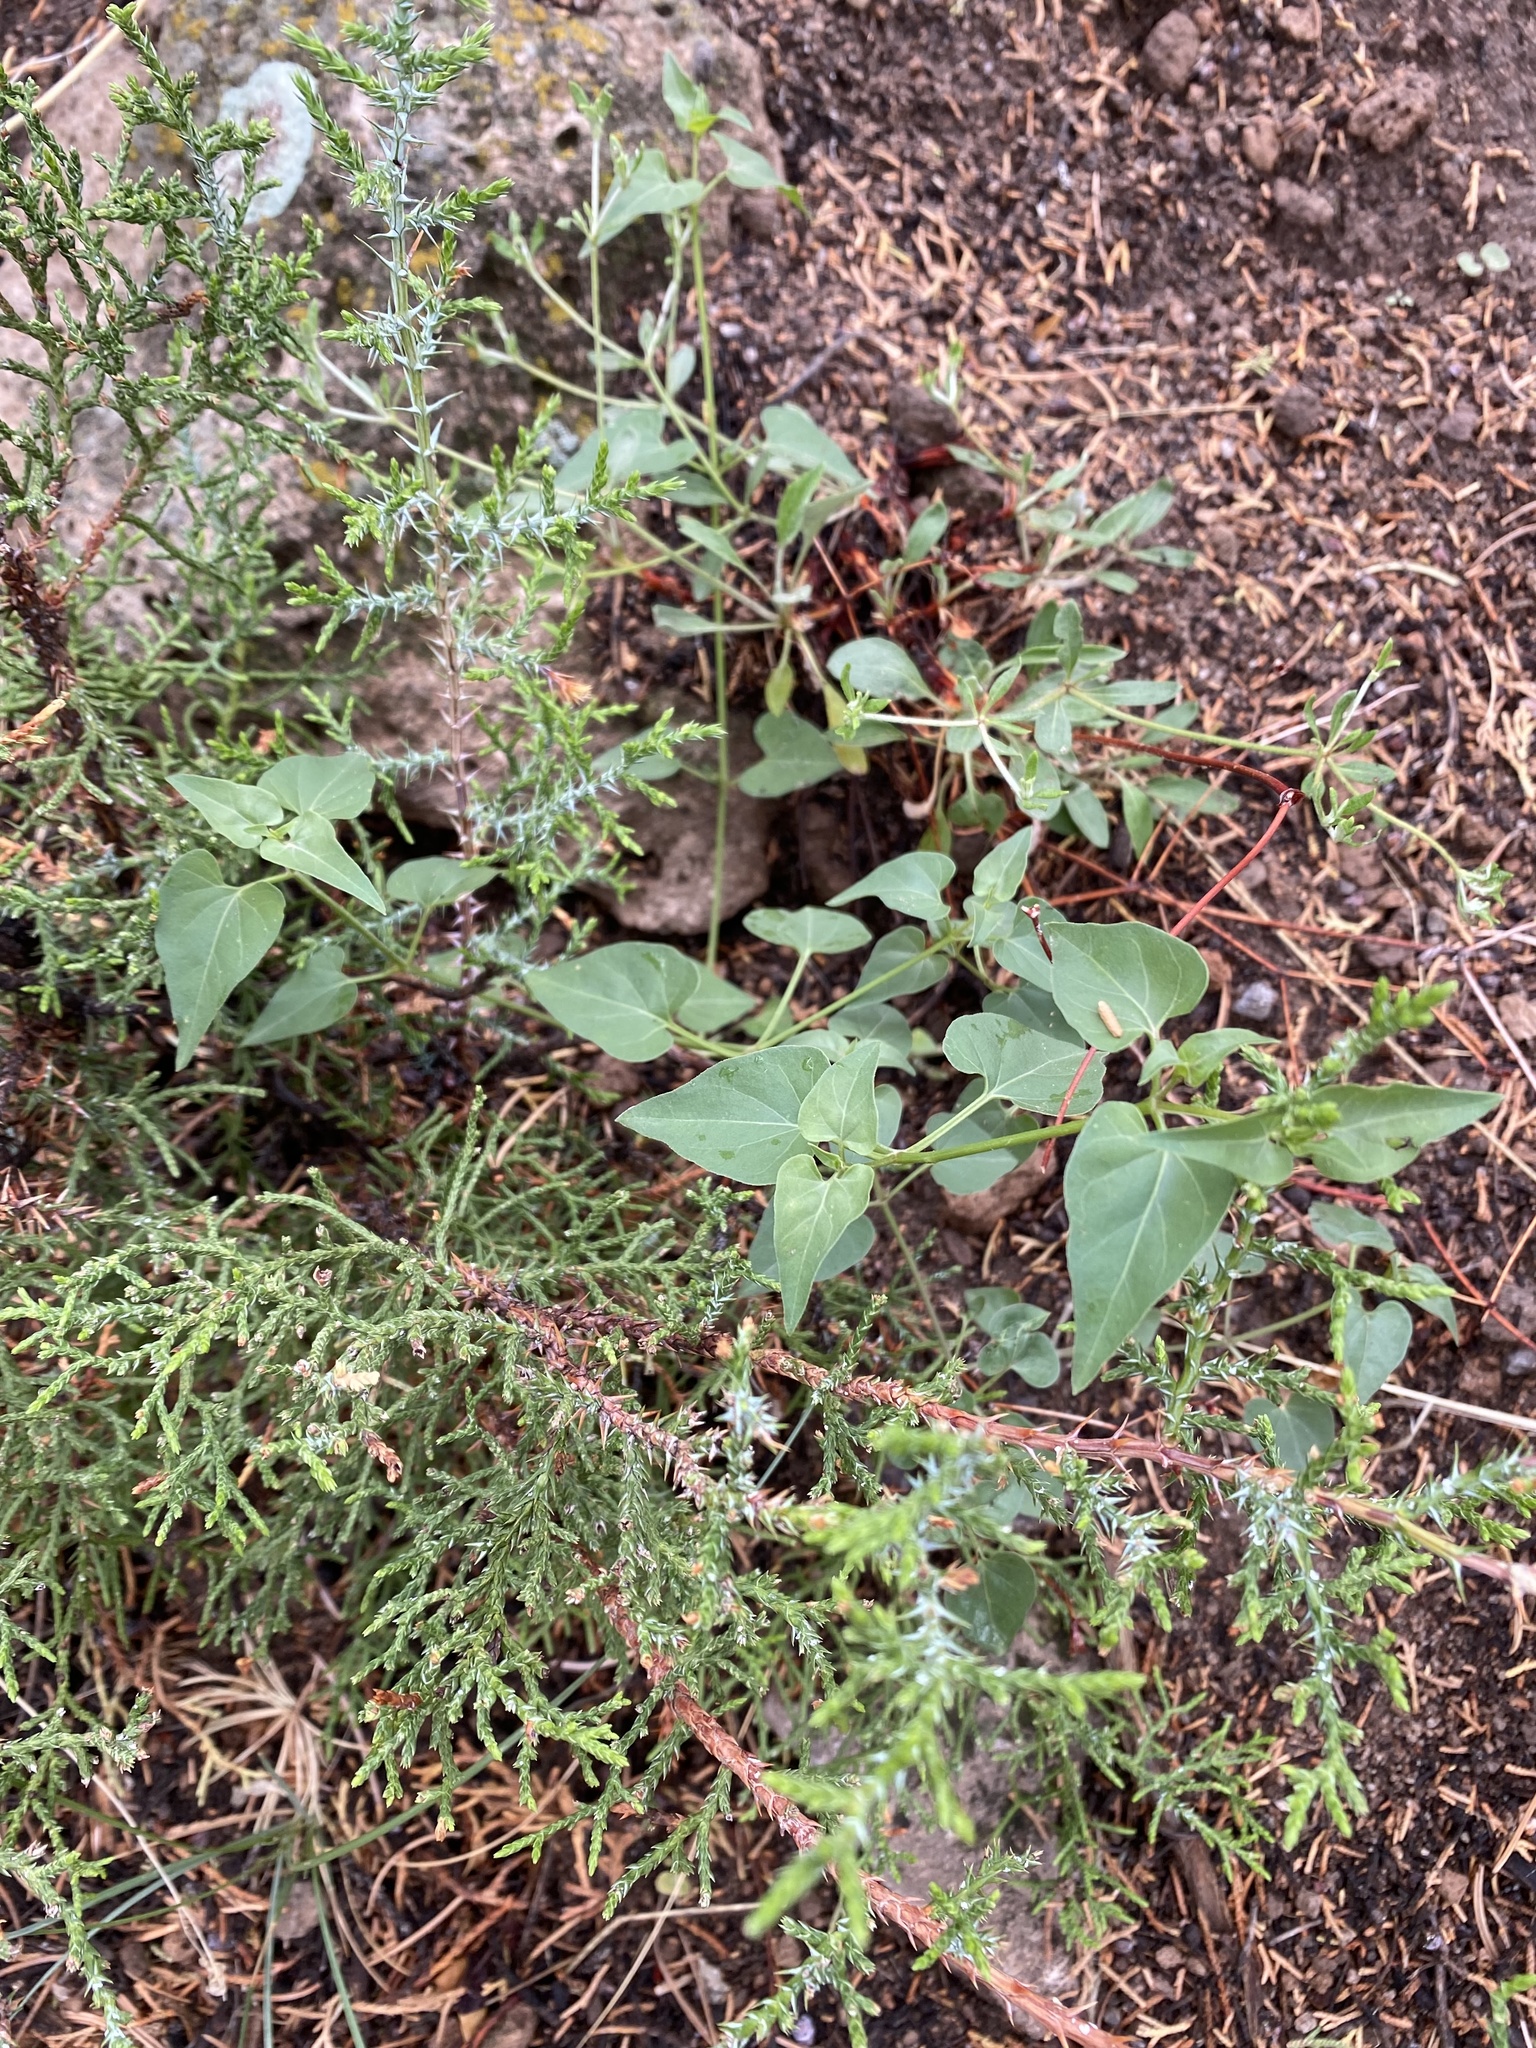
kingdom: Plantae
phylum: Tracheophyta
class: Magnoliopsida
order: Caryophyllales
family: Nyctaginaceae
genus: Mirabilis
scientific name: Mirabilis oxybaphoides
